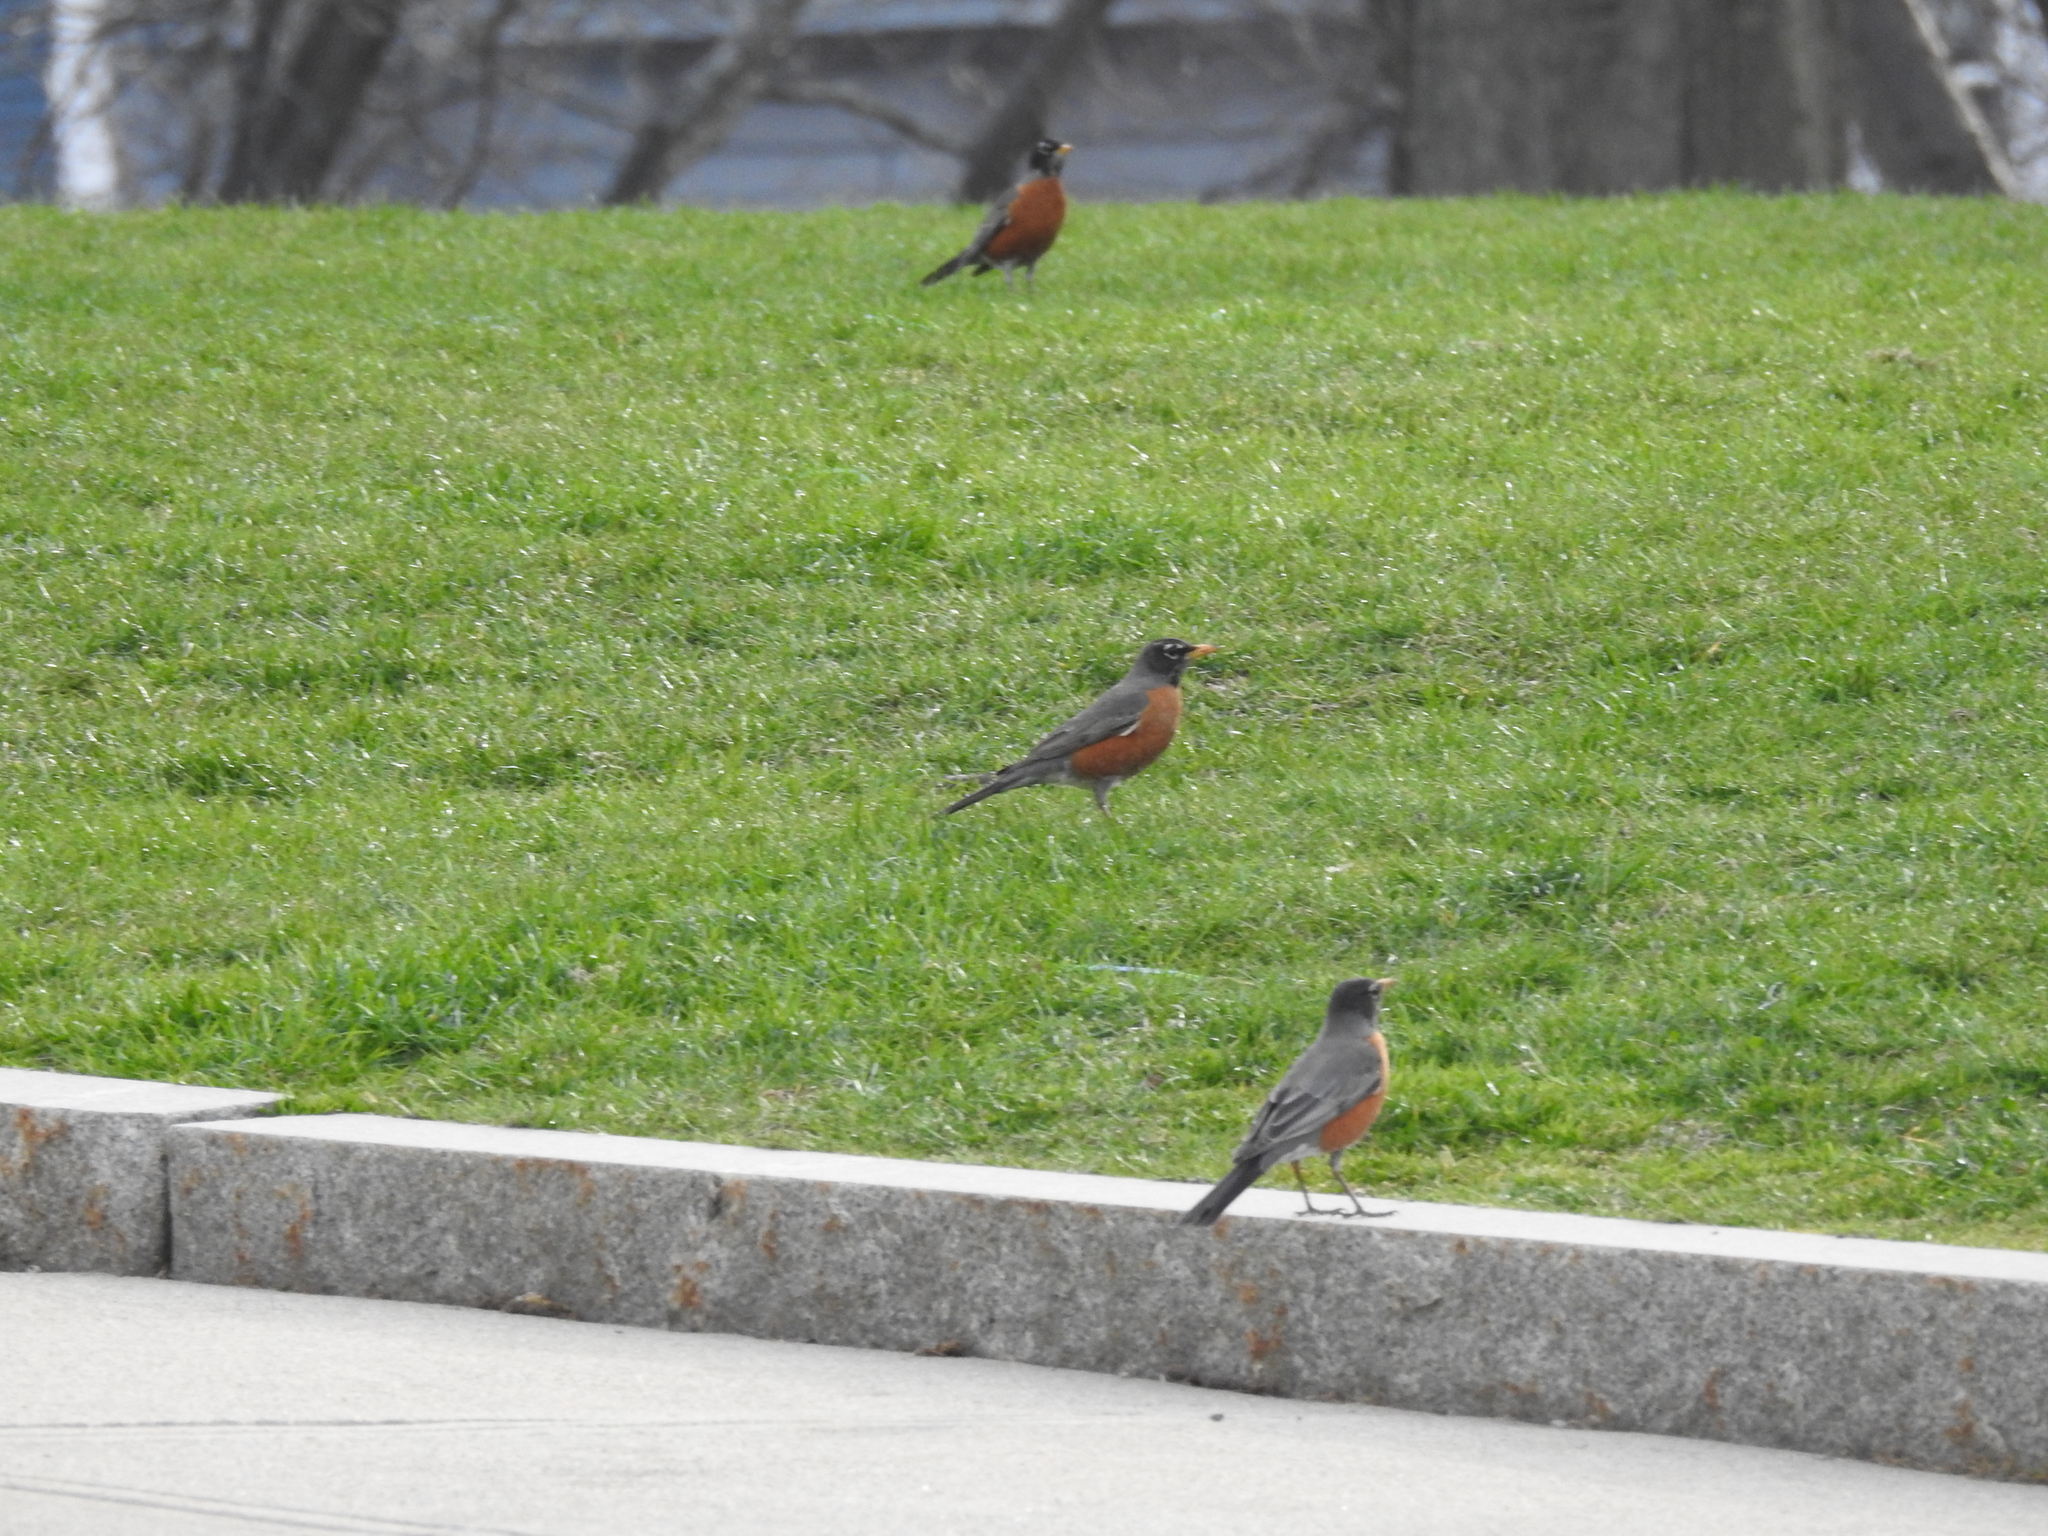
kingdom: Animalia
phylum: Chordata
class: Aves
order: Passeriformes
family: Turdidae
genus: Turdus
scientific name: Turdus migratorius
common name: American robin
